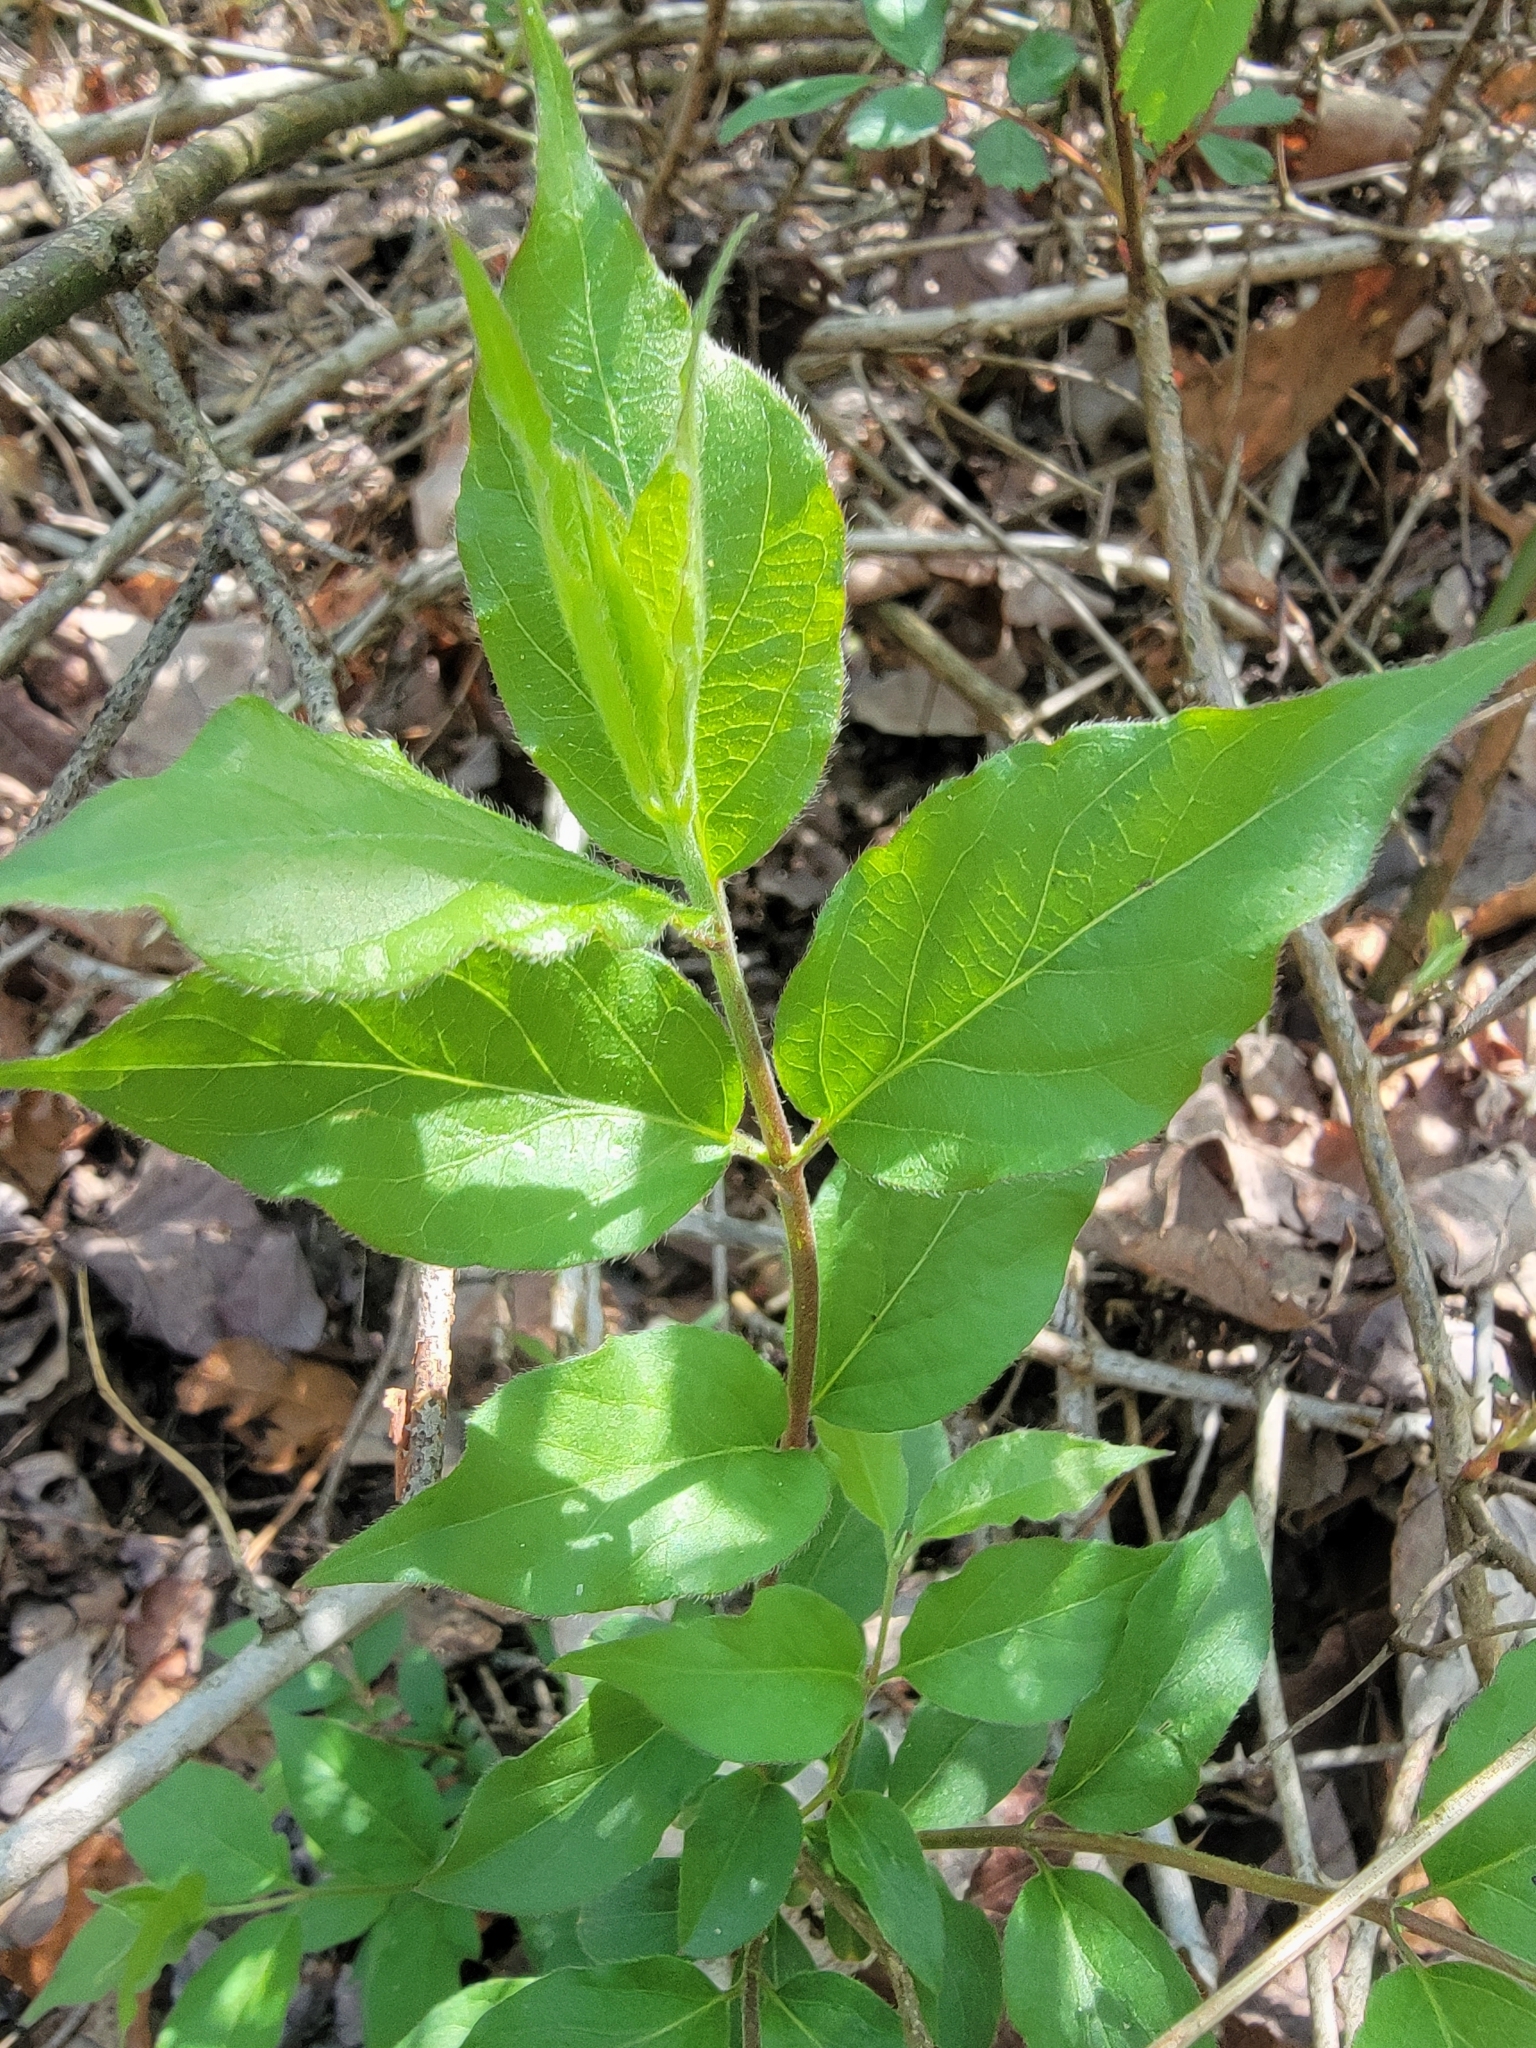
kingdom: Plantae
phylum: Tracheophyta
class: Magnoliopsida
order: Dipsacales
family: Caprifoliaceae
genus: Lonicera
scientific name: Lonicera maackii
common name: Amur honeysuckle
